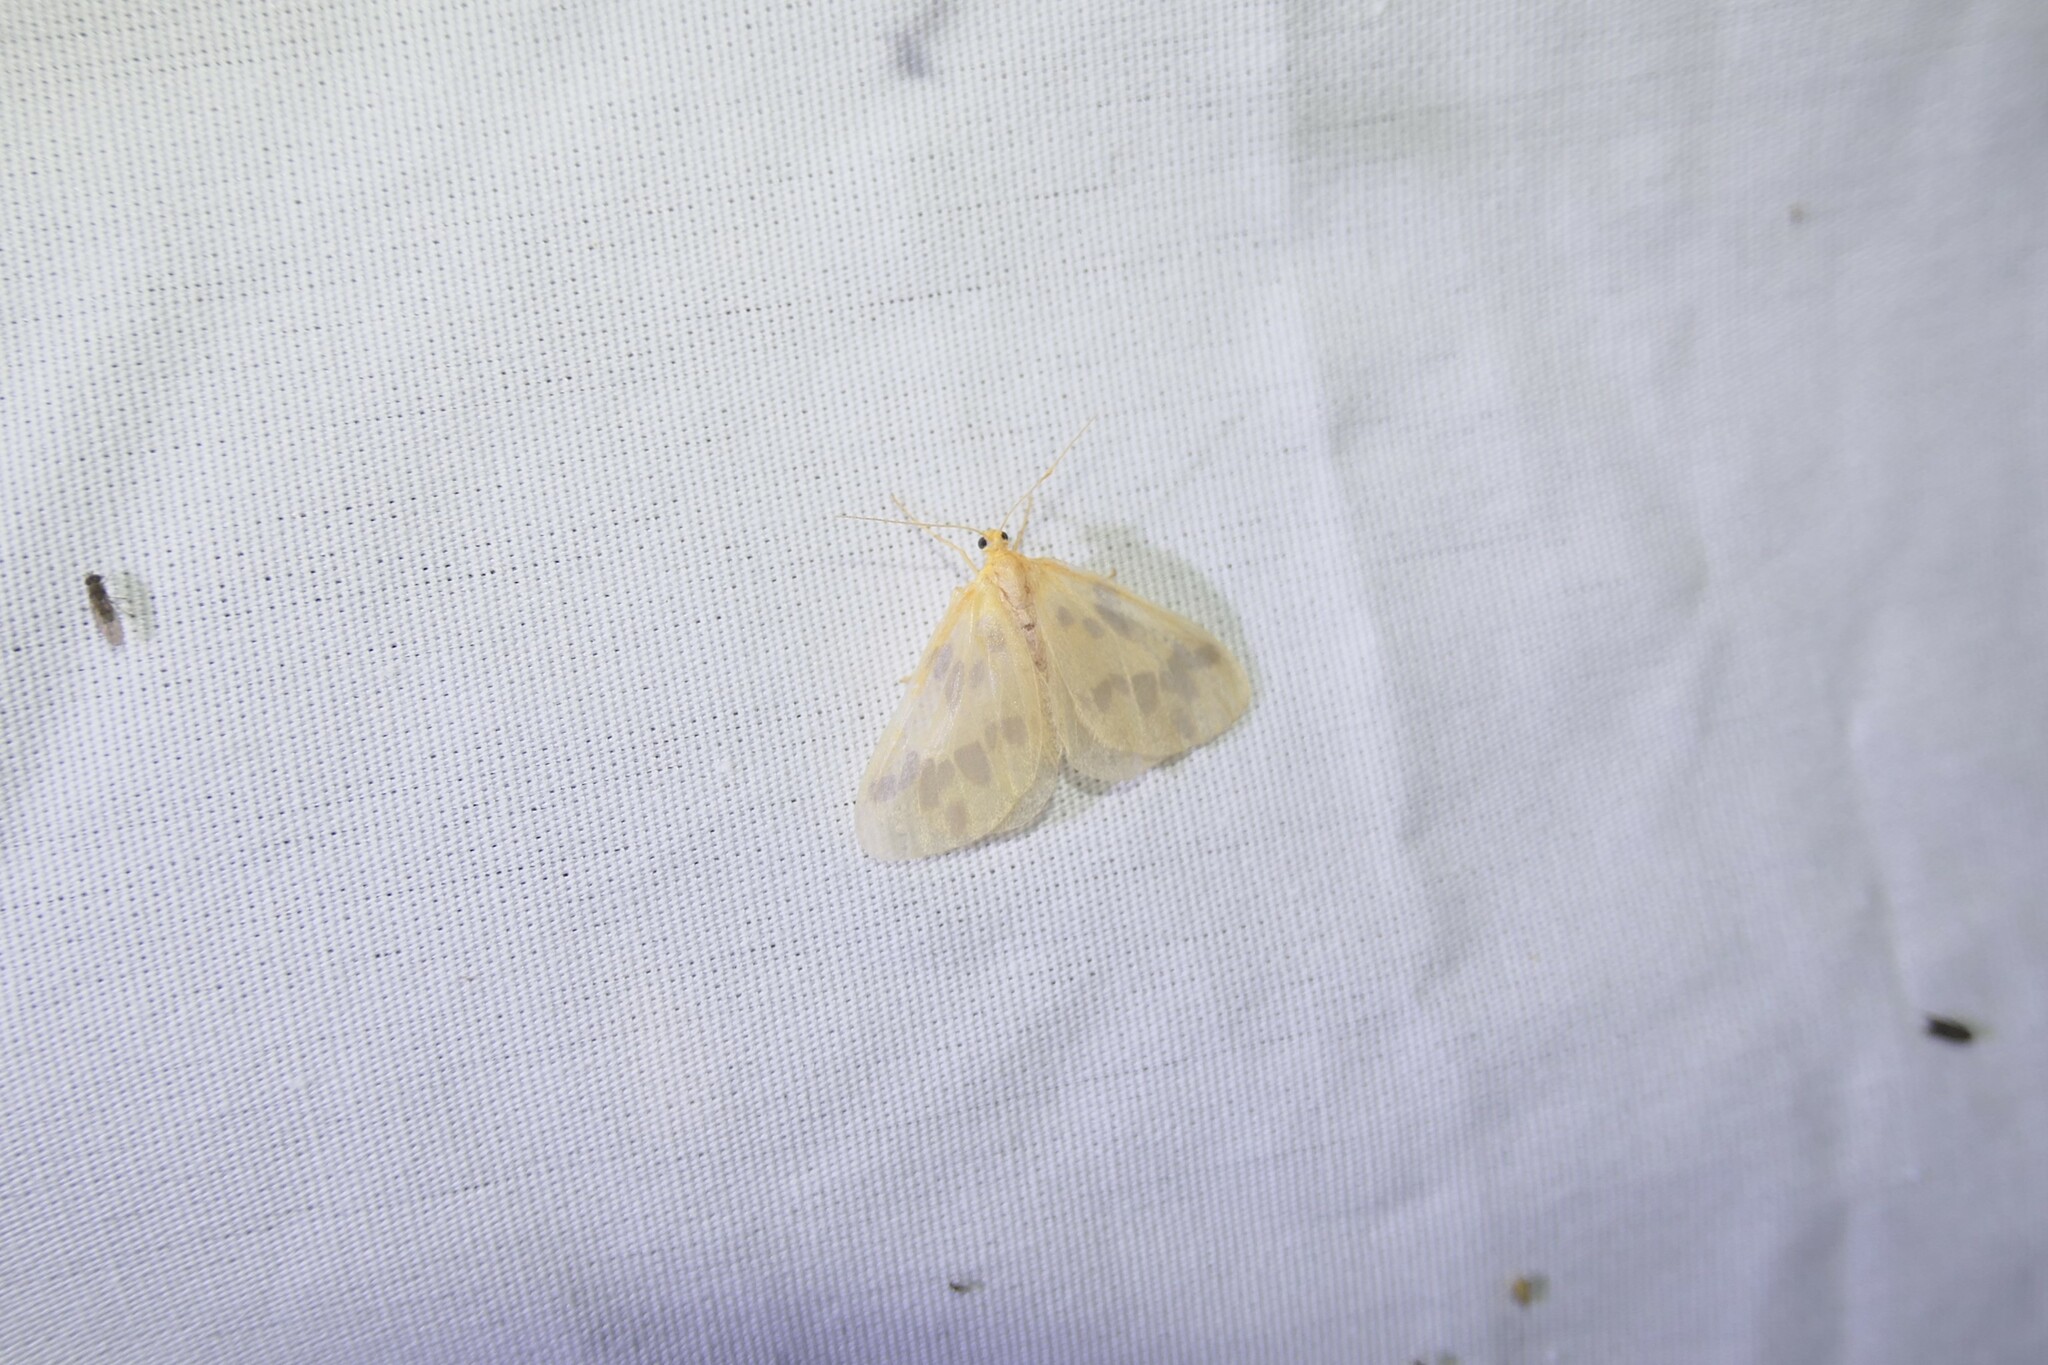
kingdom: Animalia
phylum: Arthropoda
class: Insecta
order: Lepidoptera
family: Geometridae
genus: Eubaphe
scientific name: Eubaphe mendica
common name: Beggar
